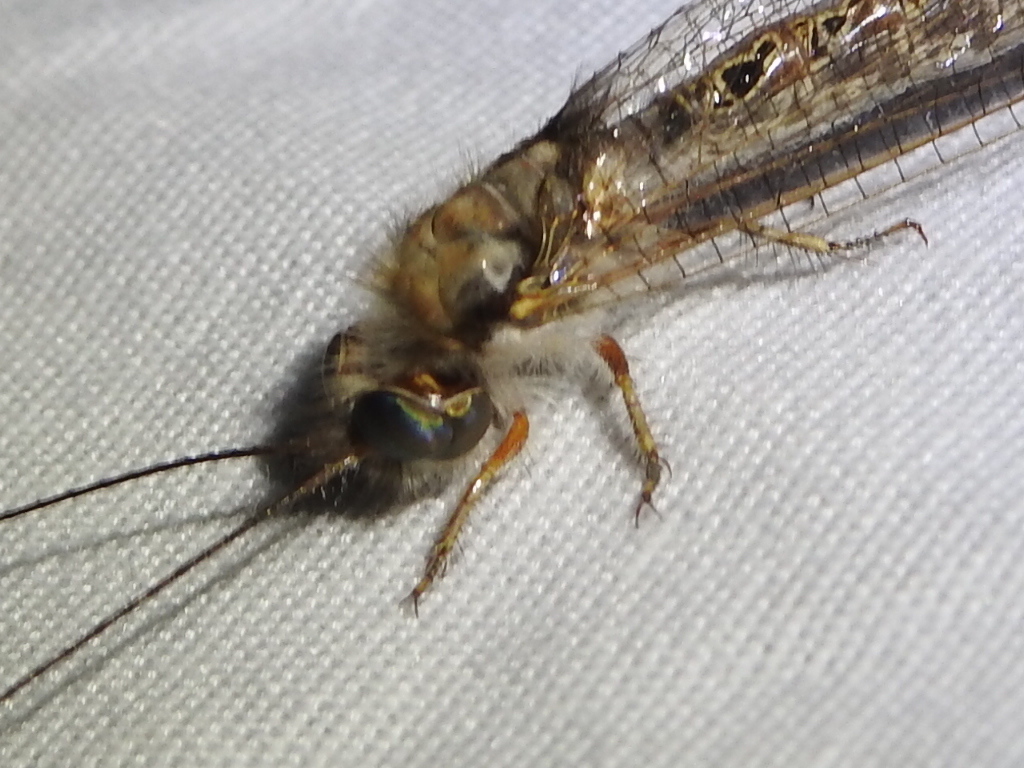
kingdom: Animalia
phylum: Arthropoda
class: Insecta
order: Neuroptera
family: Ascalaphidae
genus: Ululodes
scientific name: Ululodes macleayanus
